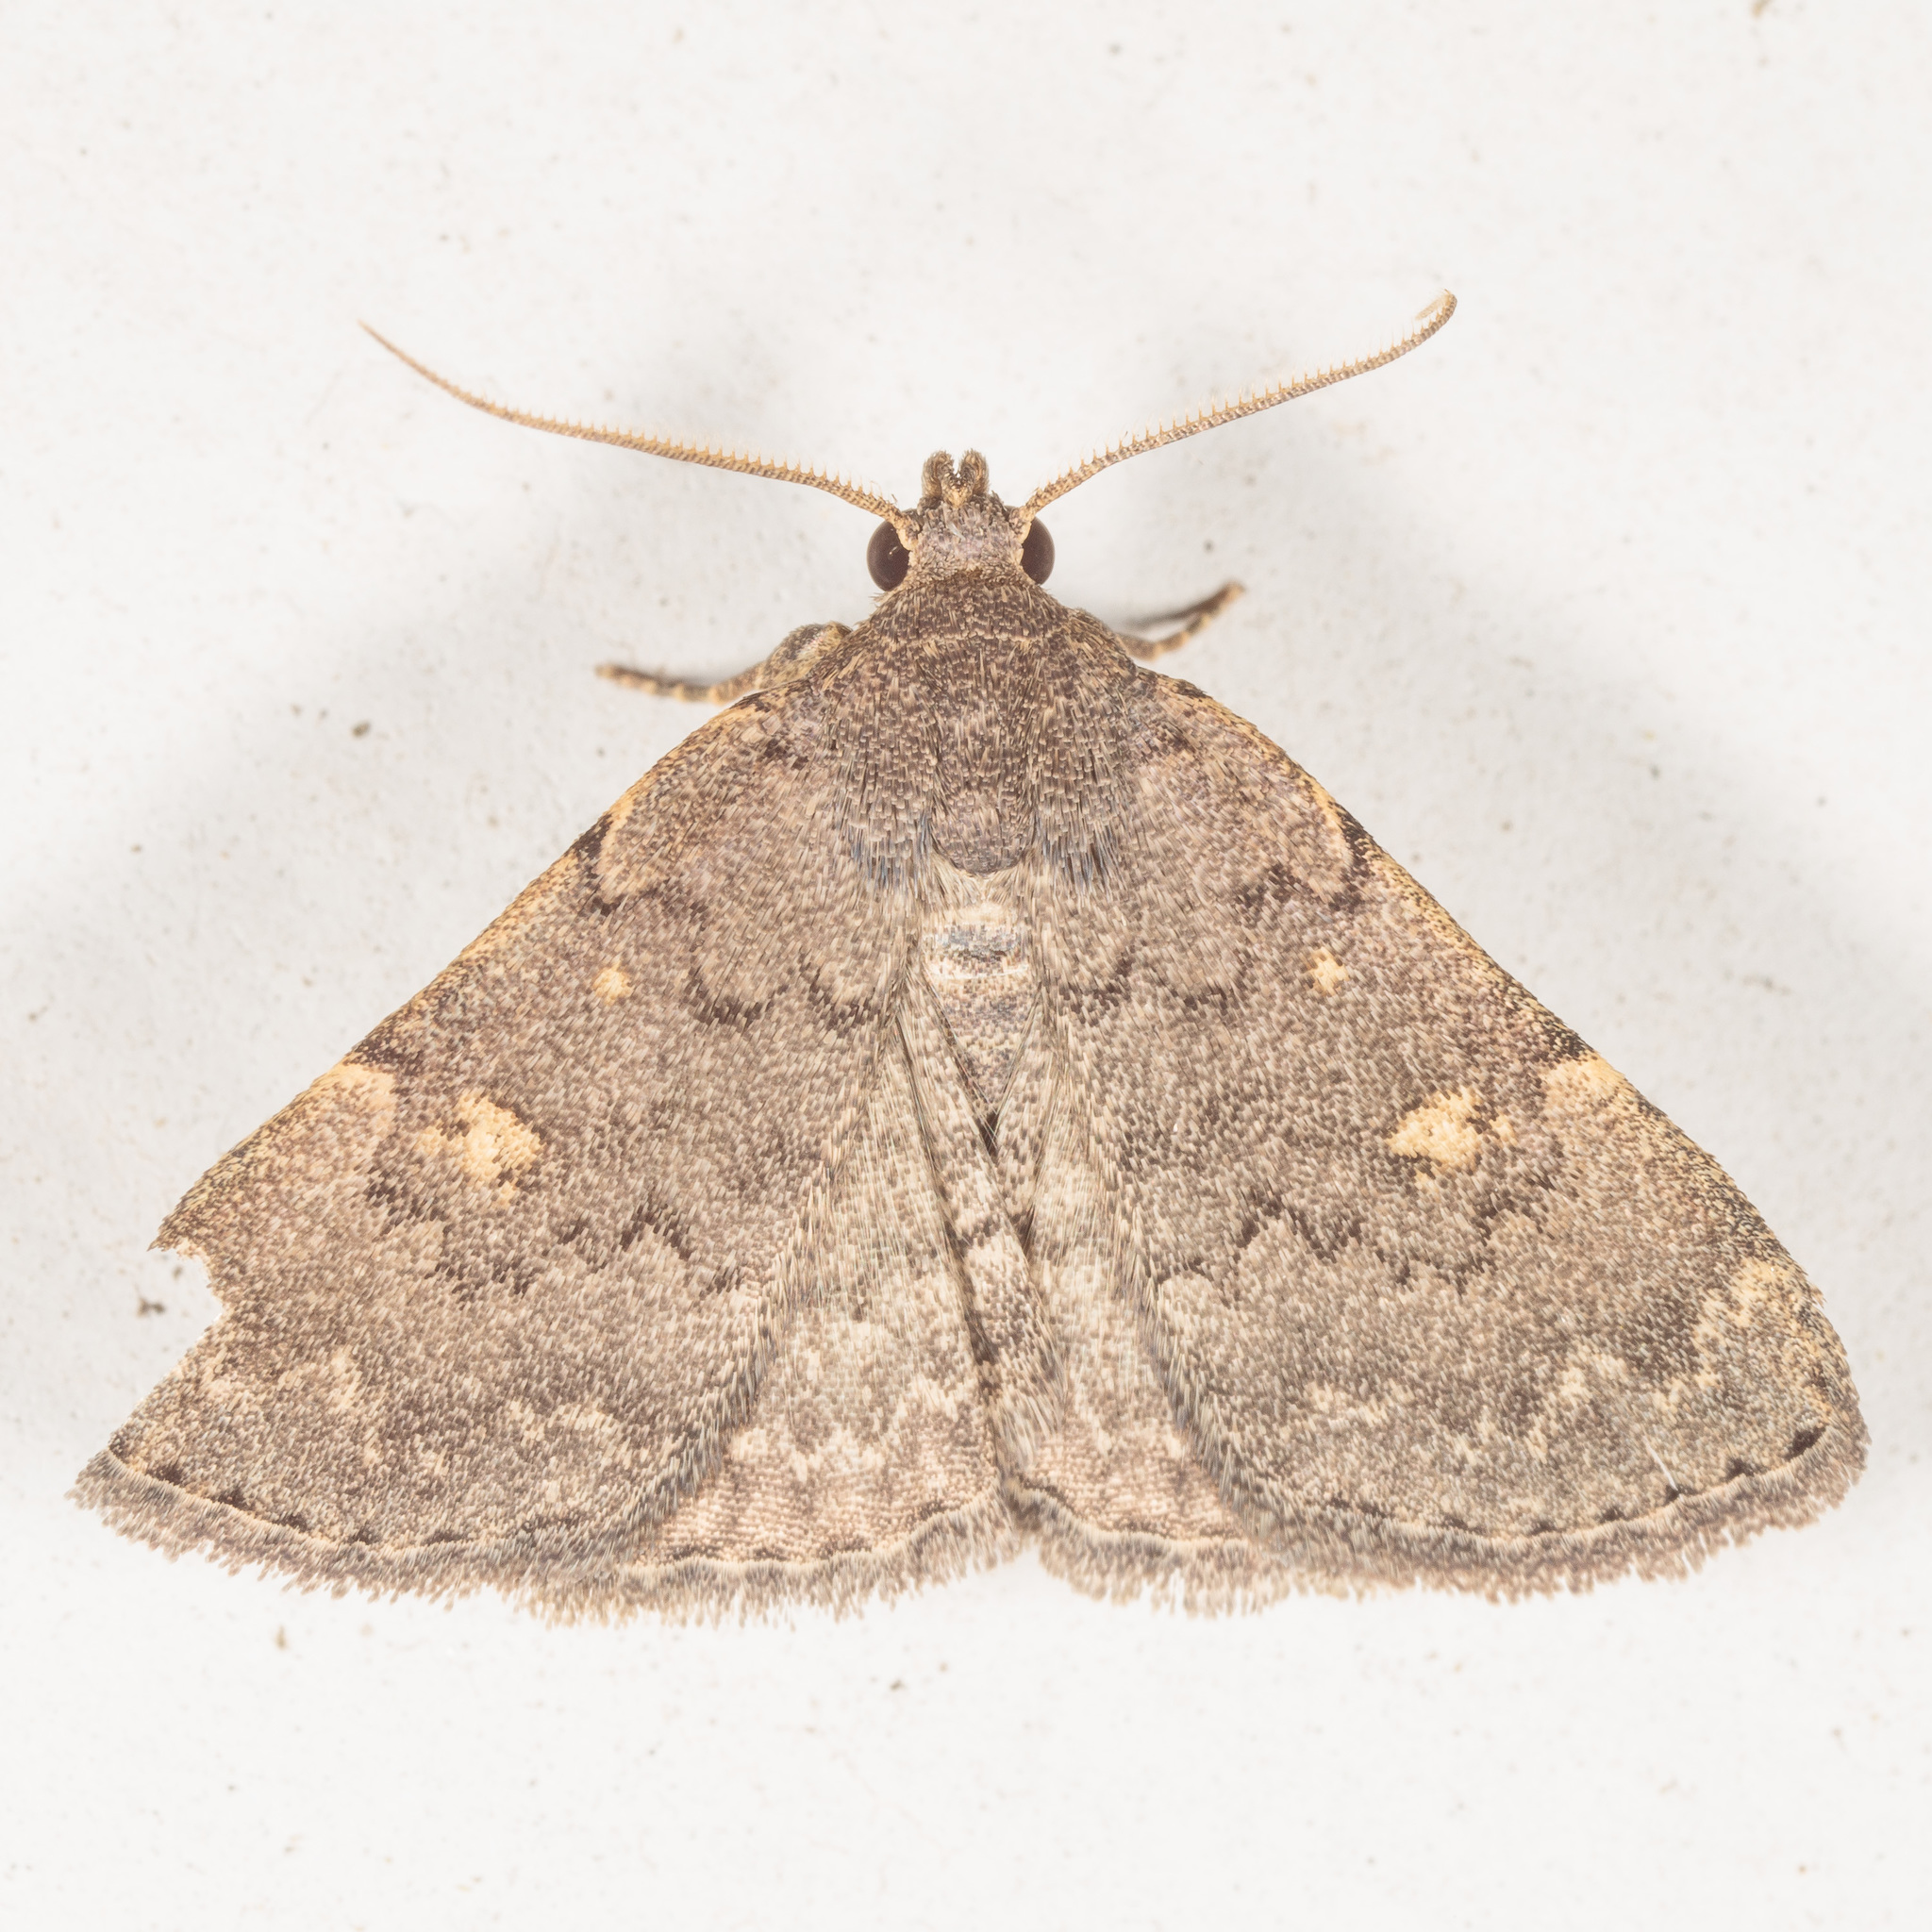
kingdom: Animalia
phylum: Arthropoda
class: Insecta
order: Lepidoptera
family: Erebidae
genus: Idia
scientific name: Idia aemula
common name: Common idia moth
